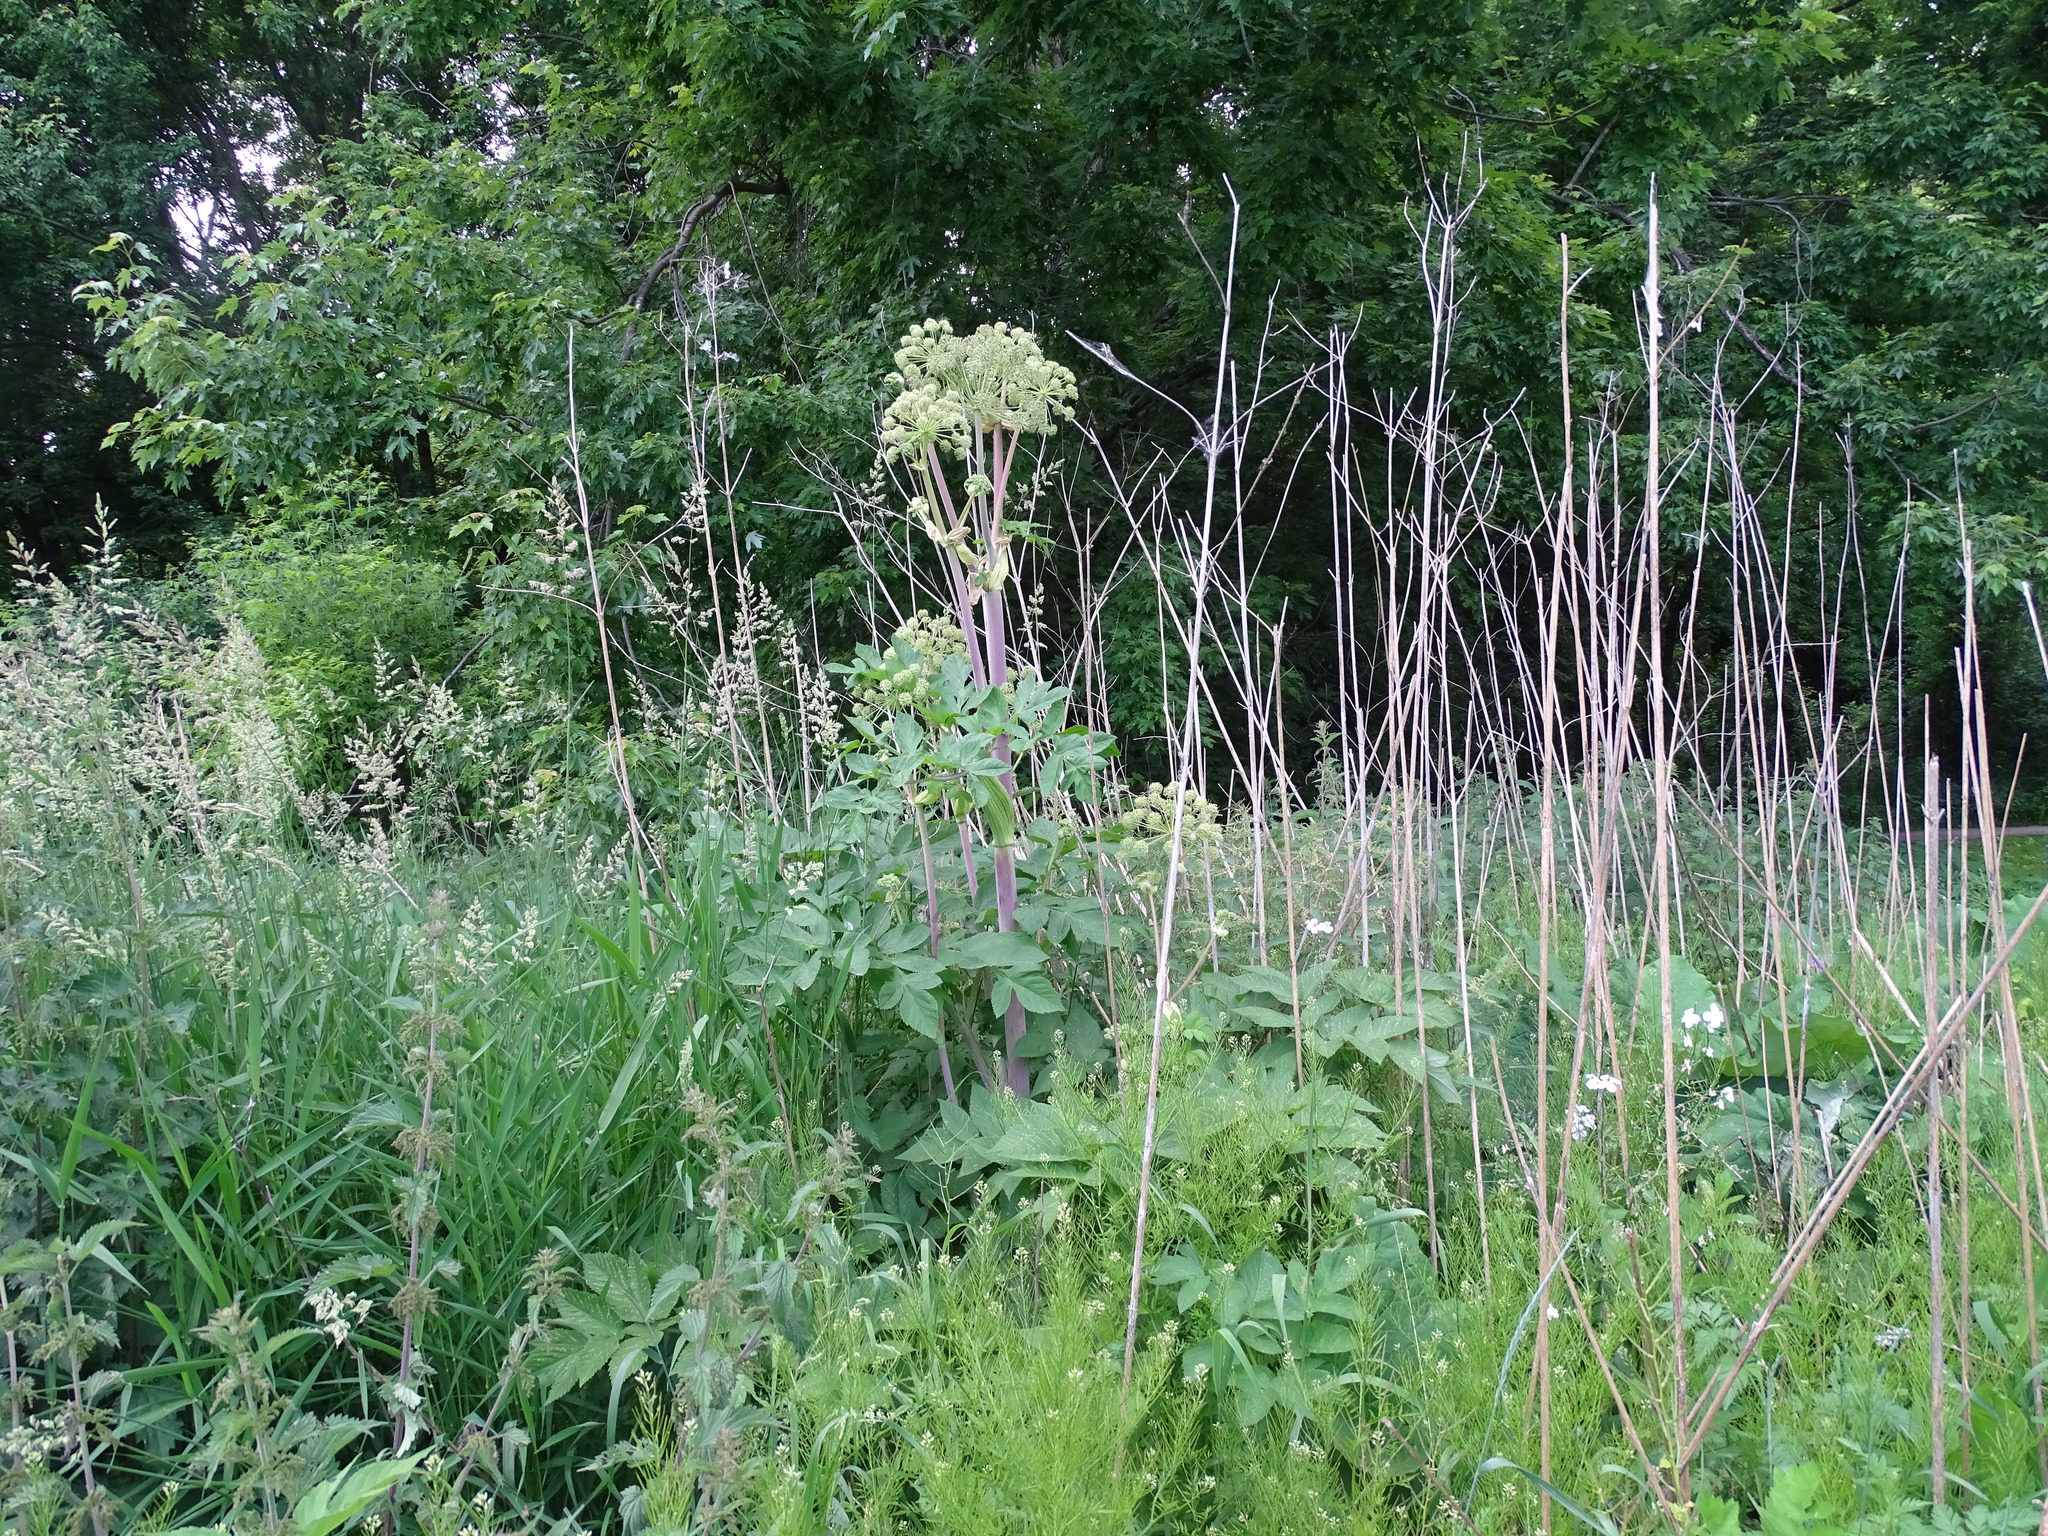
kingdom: Plantae
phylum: Tracheophyta
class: Magnoliopsida
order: Apiales
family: Apiaceae
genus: Angelica
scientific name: Angelica atropurpurea
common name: Great angelica
